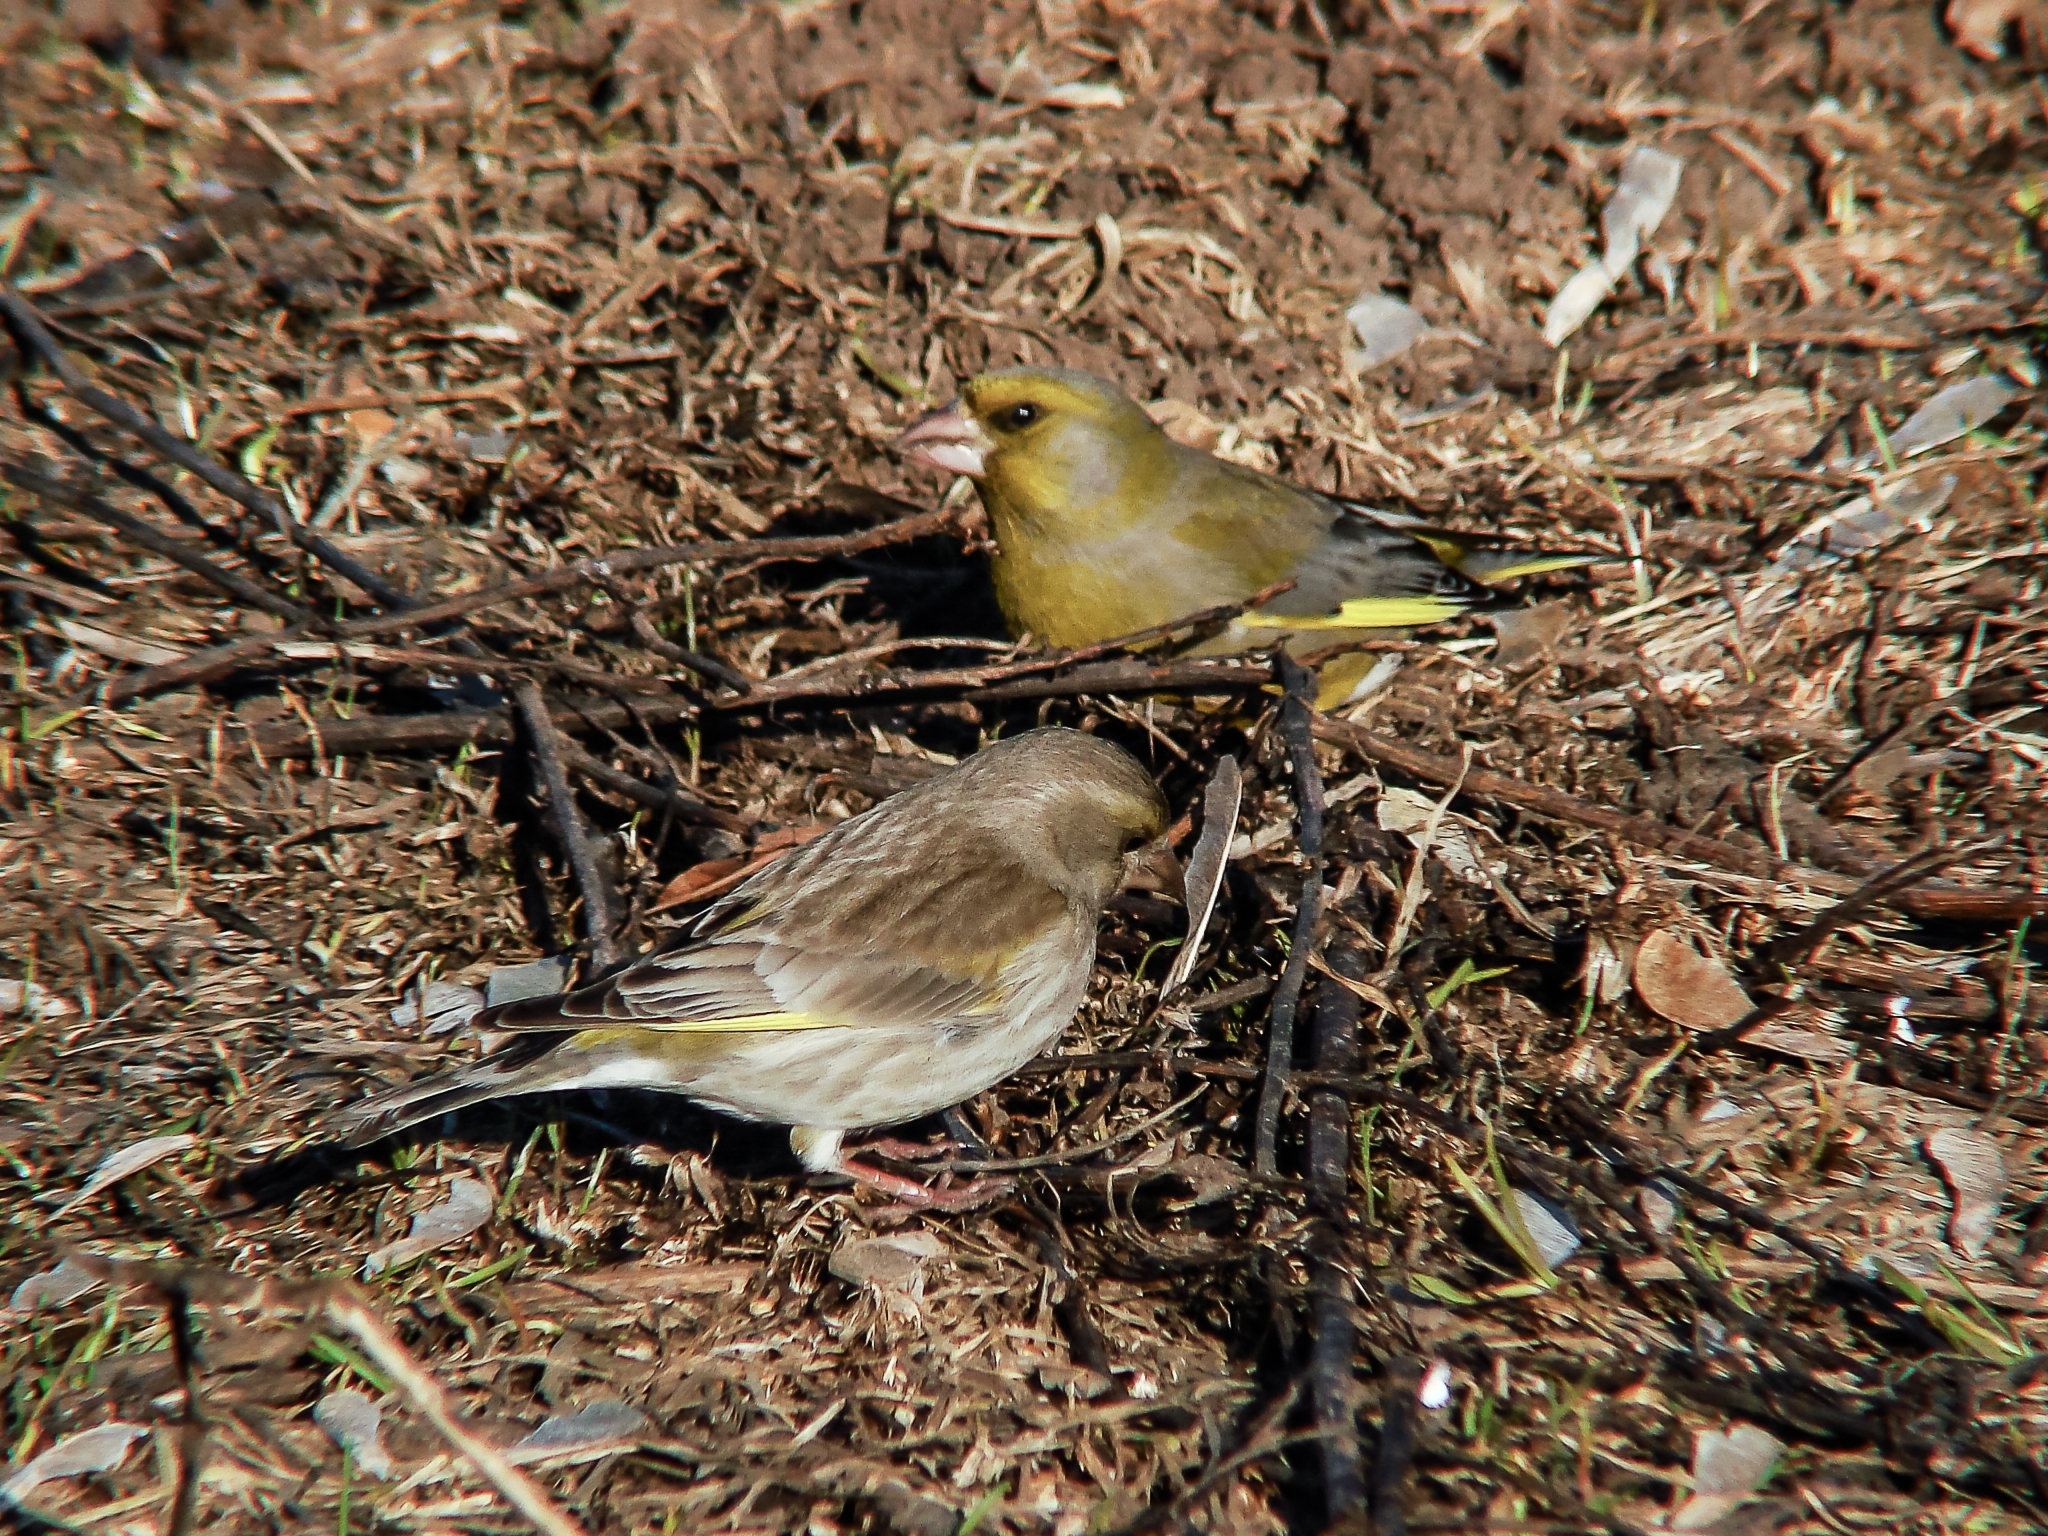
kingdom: Plantae
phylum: Tracheophyta
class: Liliopsida
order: Poales
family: Poaceae
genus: Chloris
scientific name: Chloris chloris
